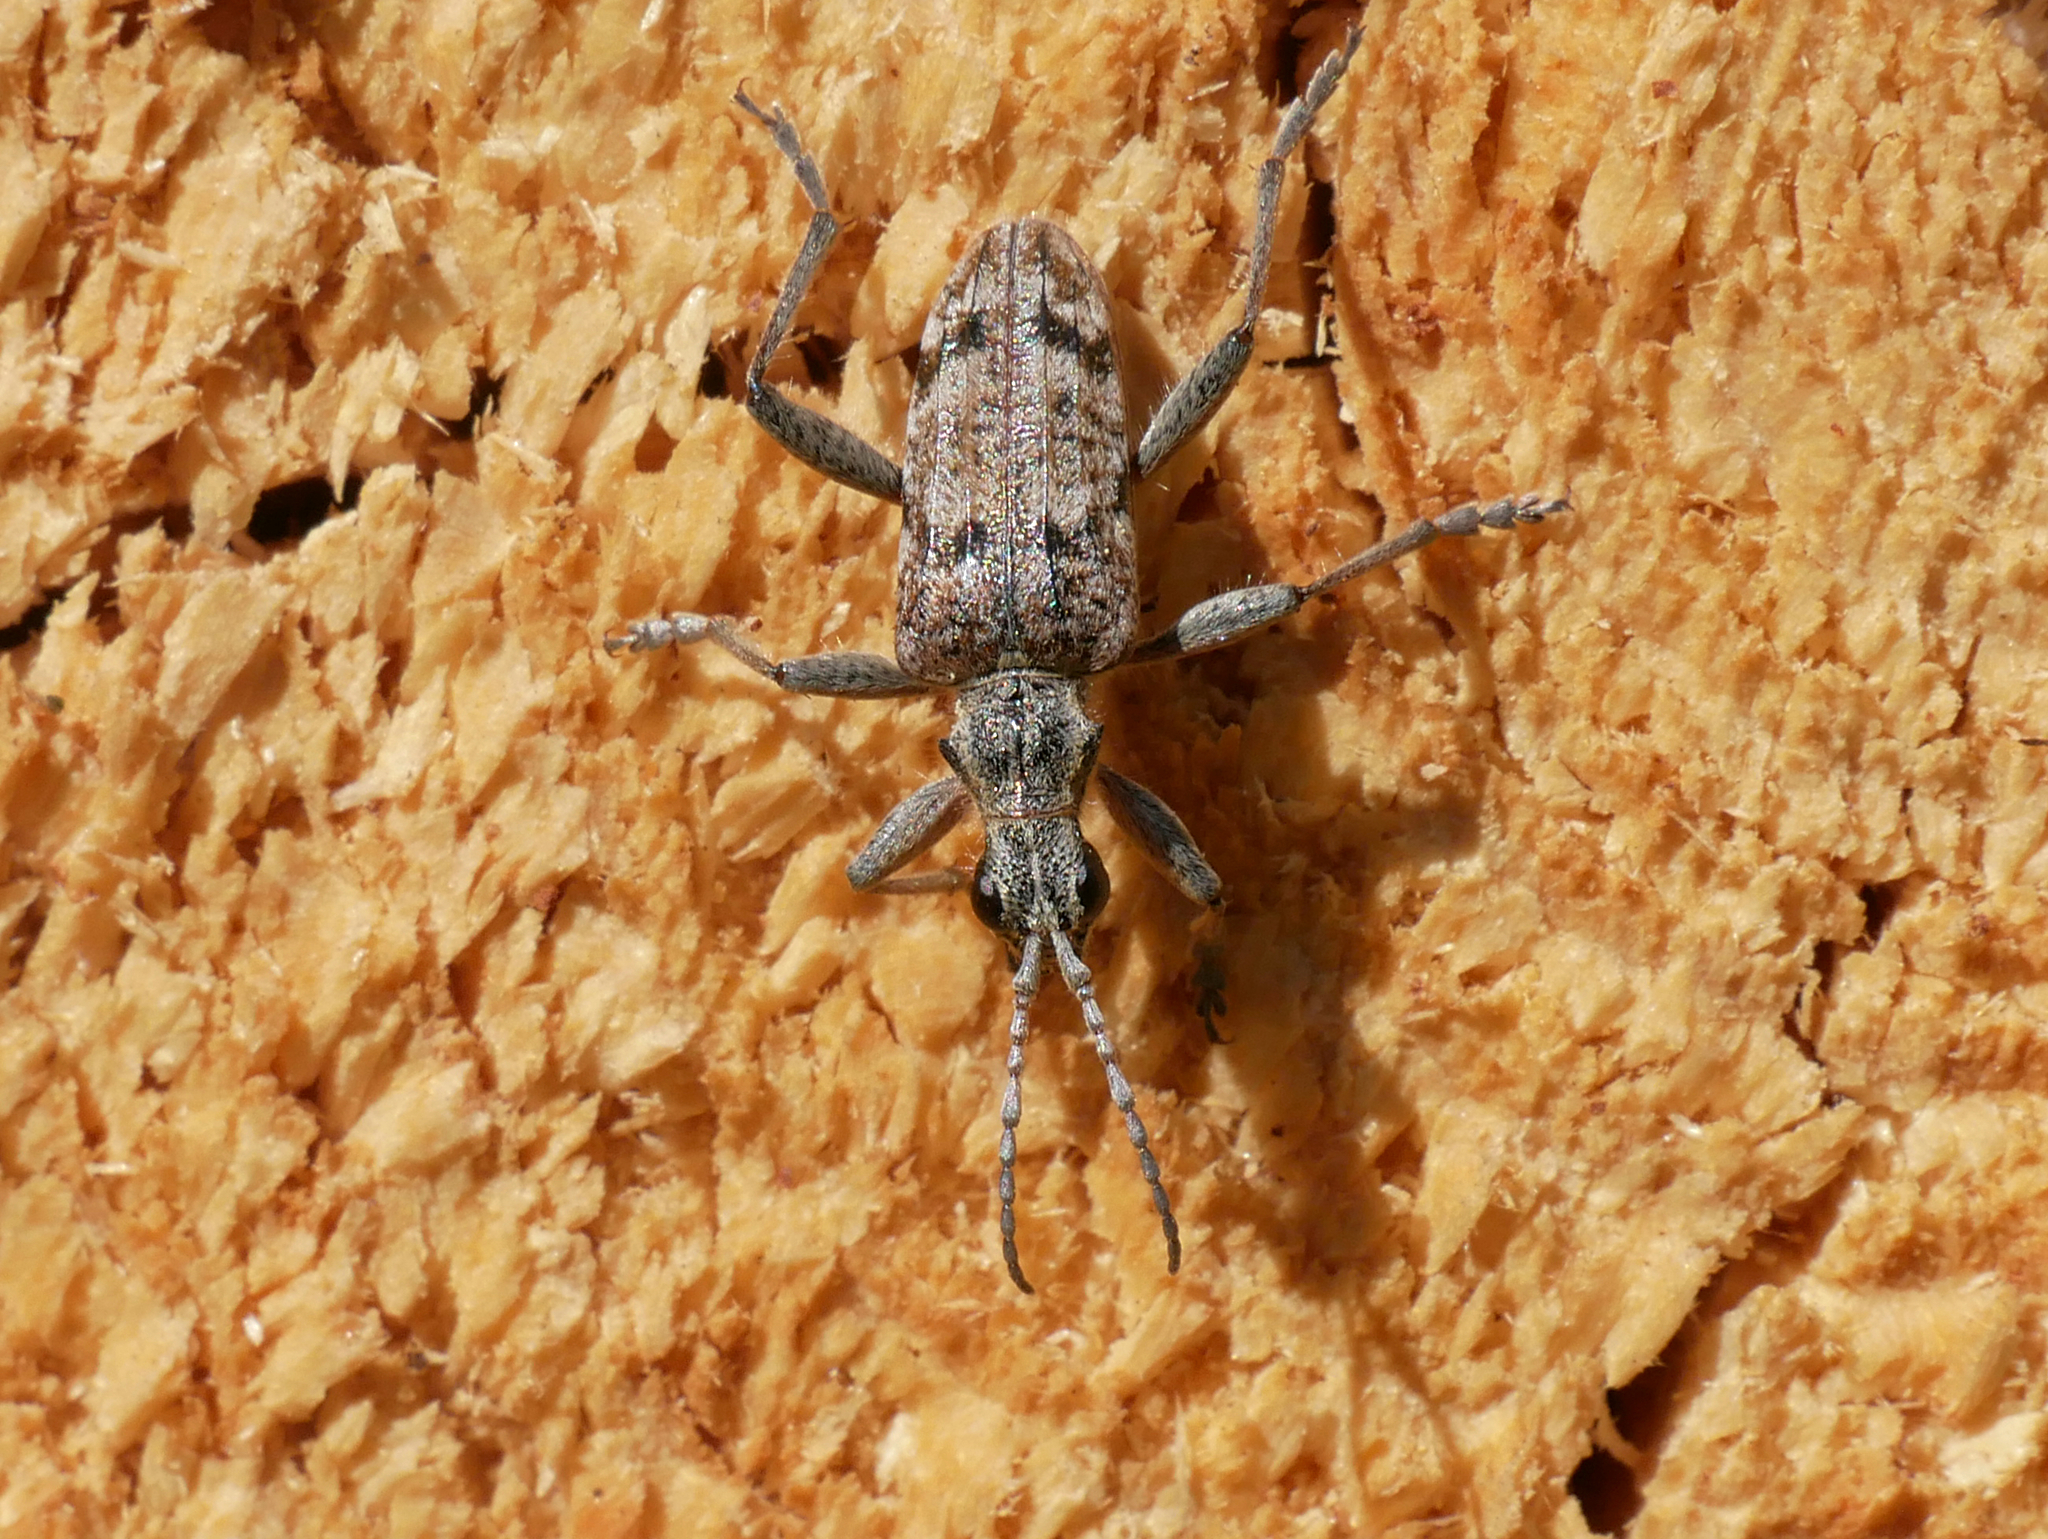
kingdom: Animalia
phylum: Arthropoda
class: Insecta
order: Coleoptera
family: Cerambycidae
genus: Rhagium
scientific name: Rhagium inquisitor
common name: Ribbed pine borer
